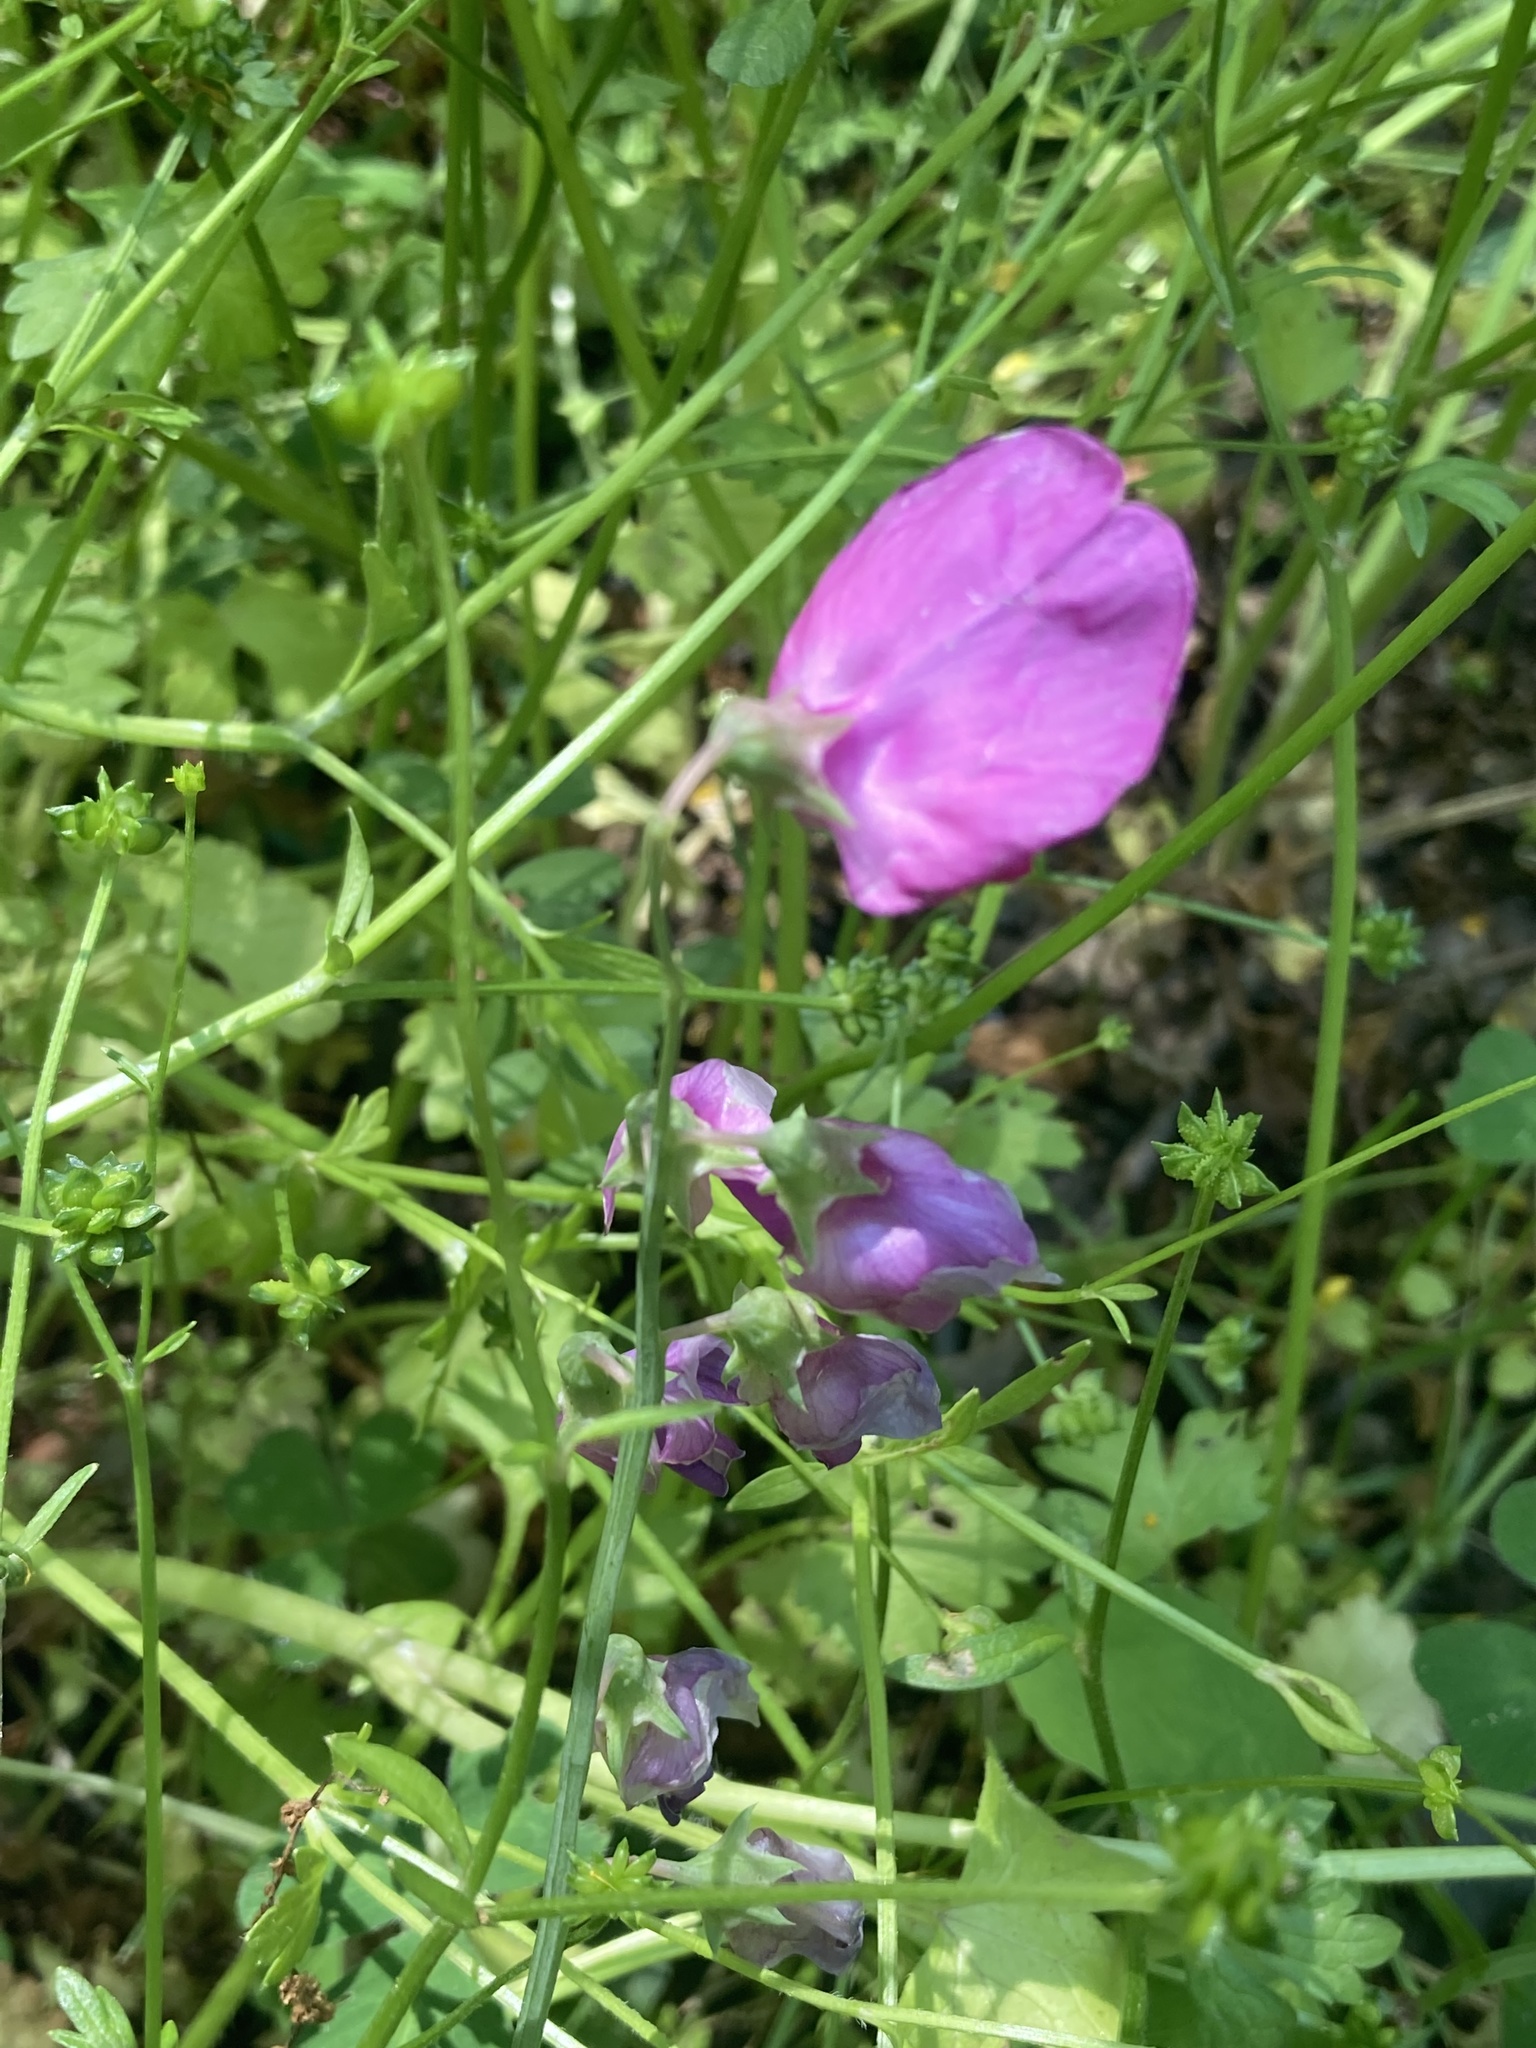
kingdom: Plantae
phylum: Tracheophyta
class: Magnoliopsida
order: Fabales
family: Fabaceae
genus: Lathyrus
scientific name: Lathyrus latifolius
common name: Perennial pea
